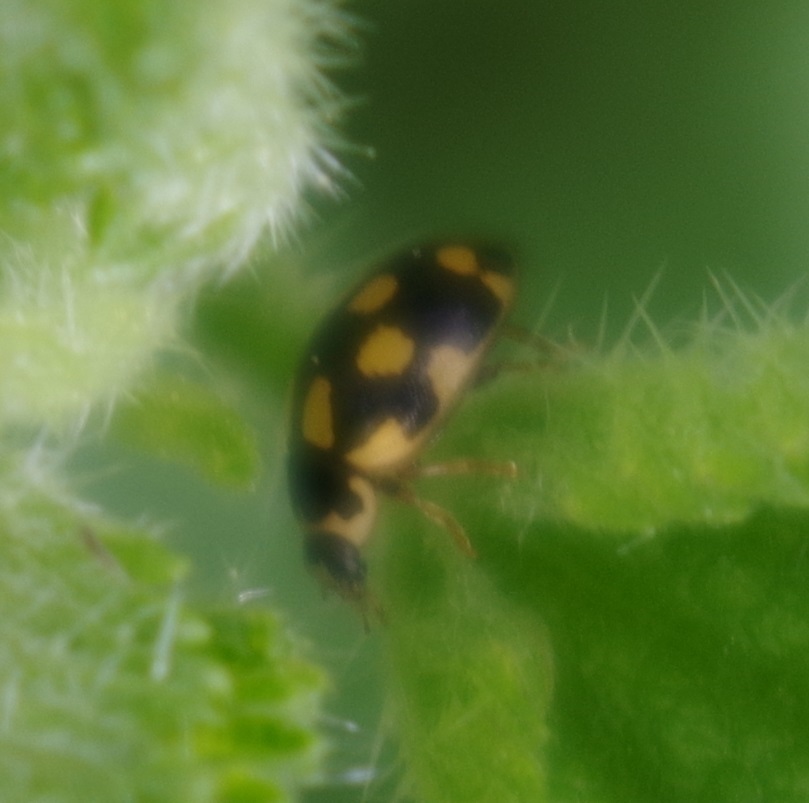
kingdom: Animalia
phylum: Arthropoda
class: Insecta
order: Coleoptera
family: Coccinellidae
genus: Propylaea
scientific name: Propylaea quatuordecimpunctata
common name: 14-spotted ladybird beetle
